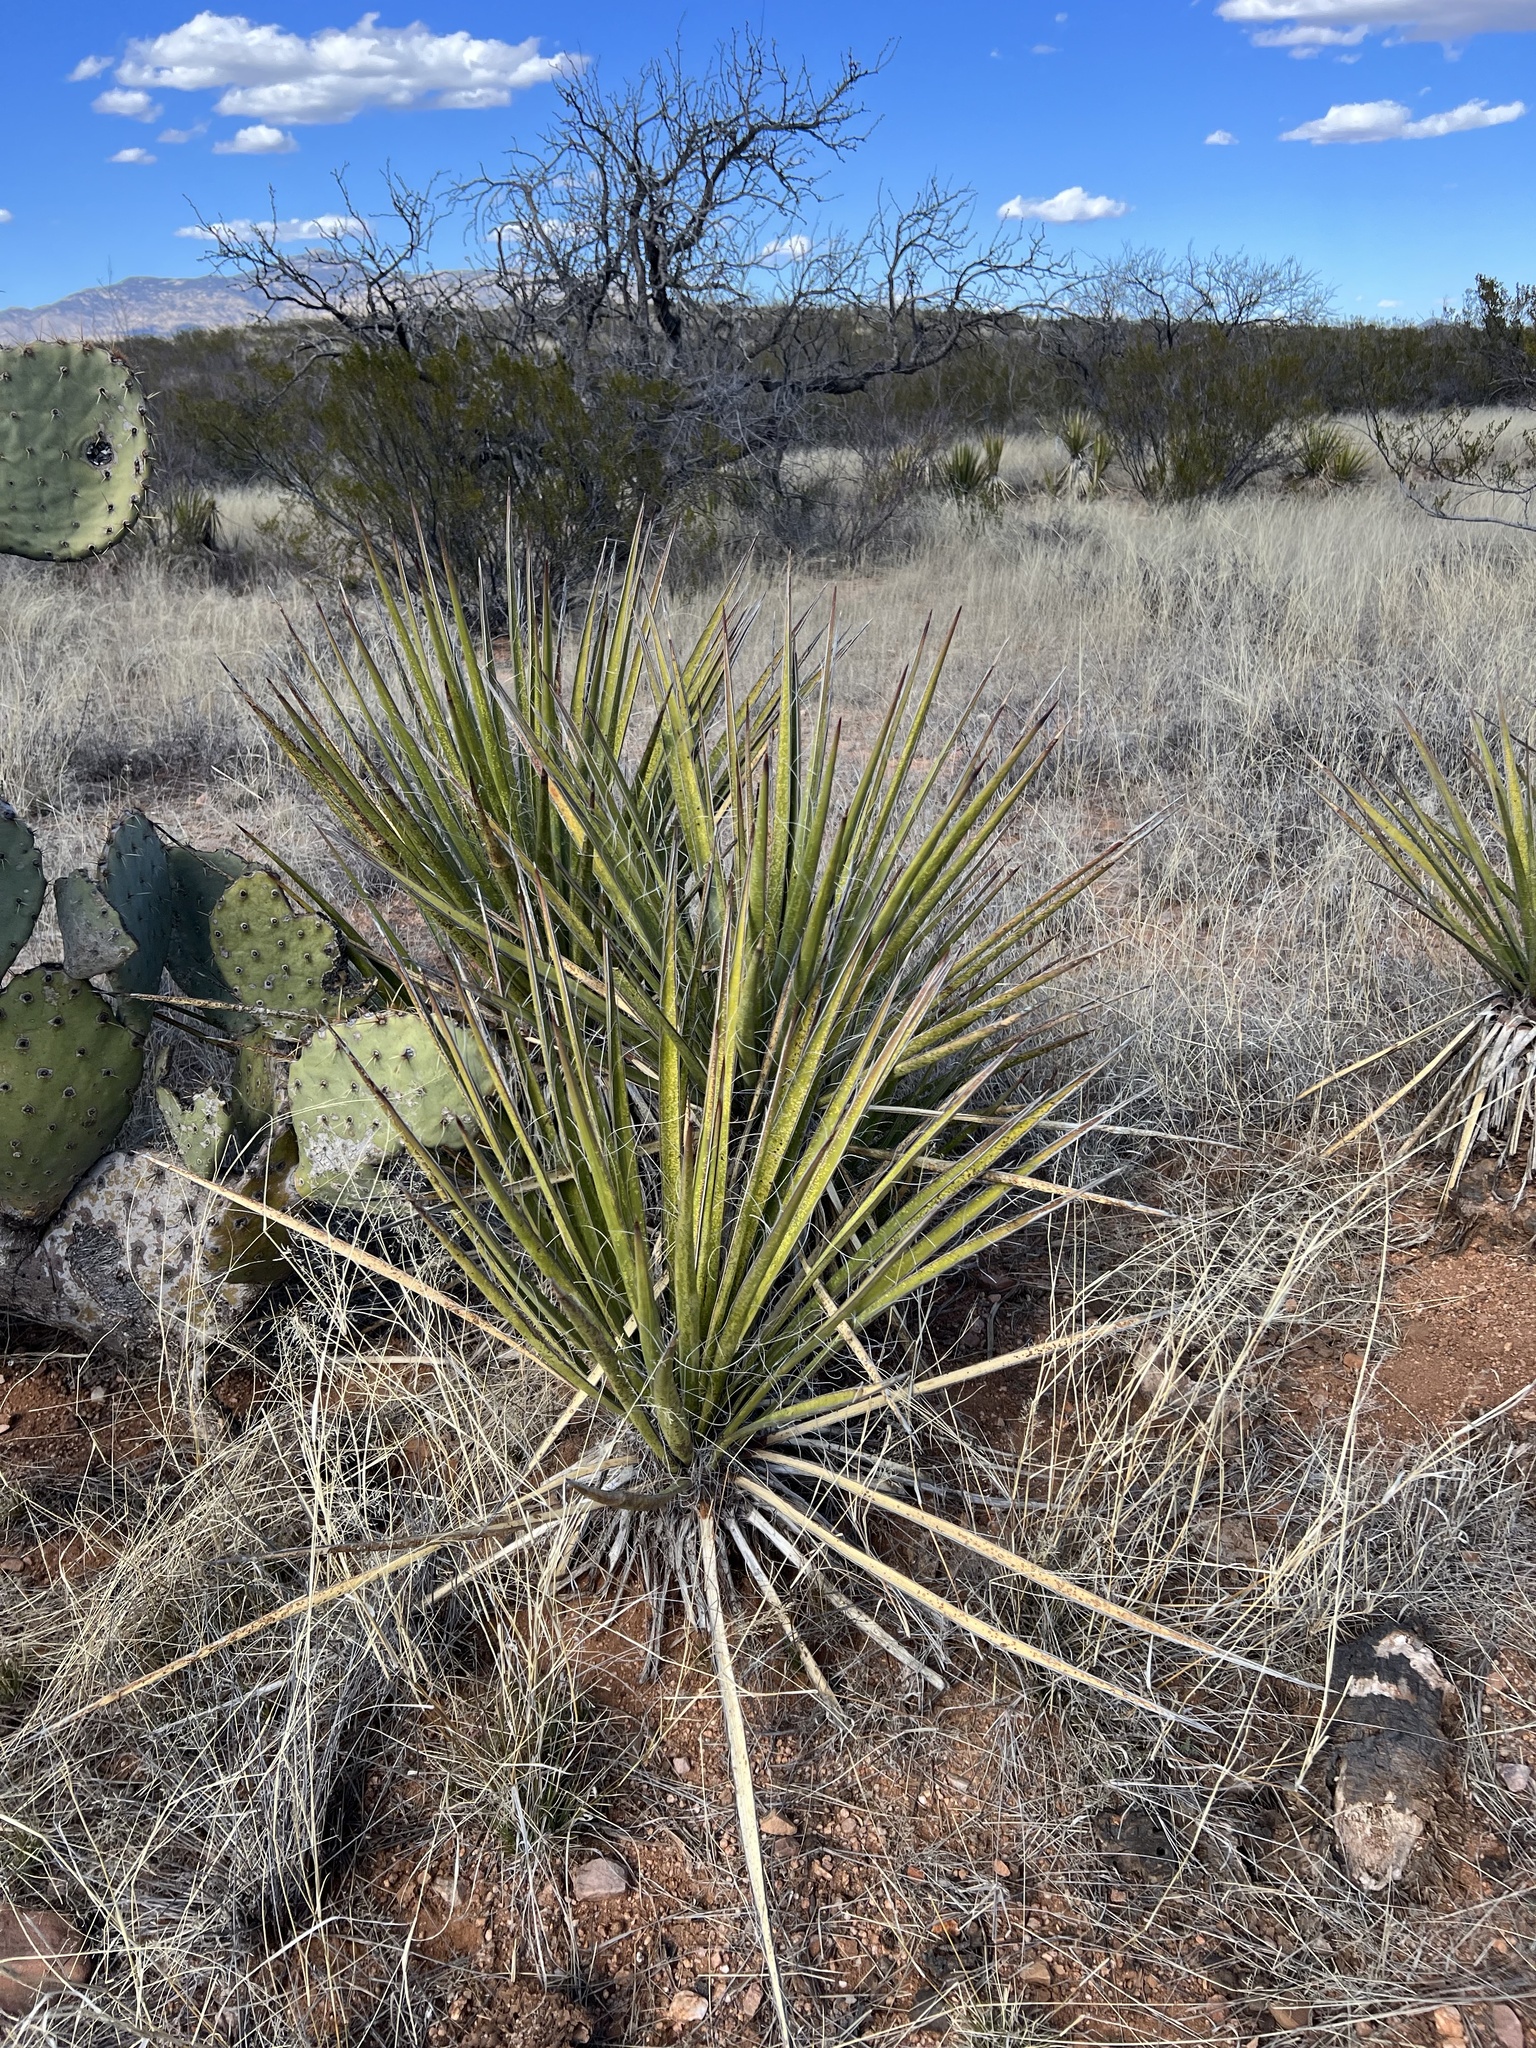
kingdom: Plantae
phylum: Tracheophyta
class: Liliopsida
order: Asparagales
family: Asparagaceae
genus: Yucca
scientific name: Yucca baccata
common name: Banana yucca
